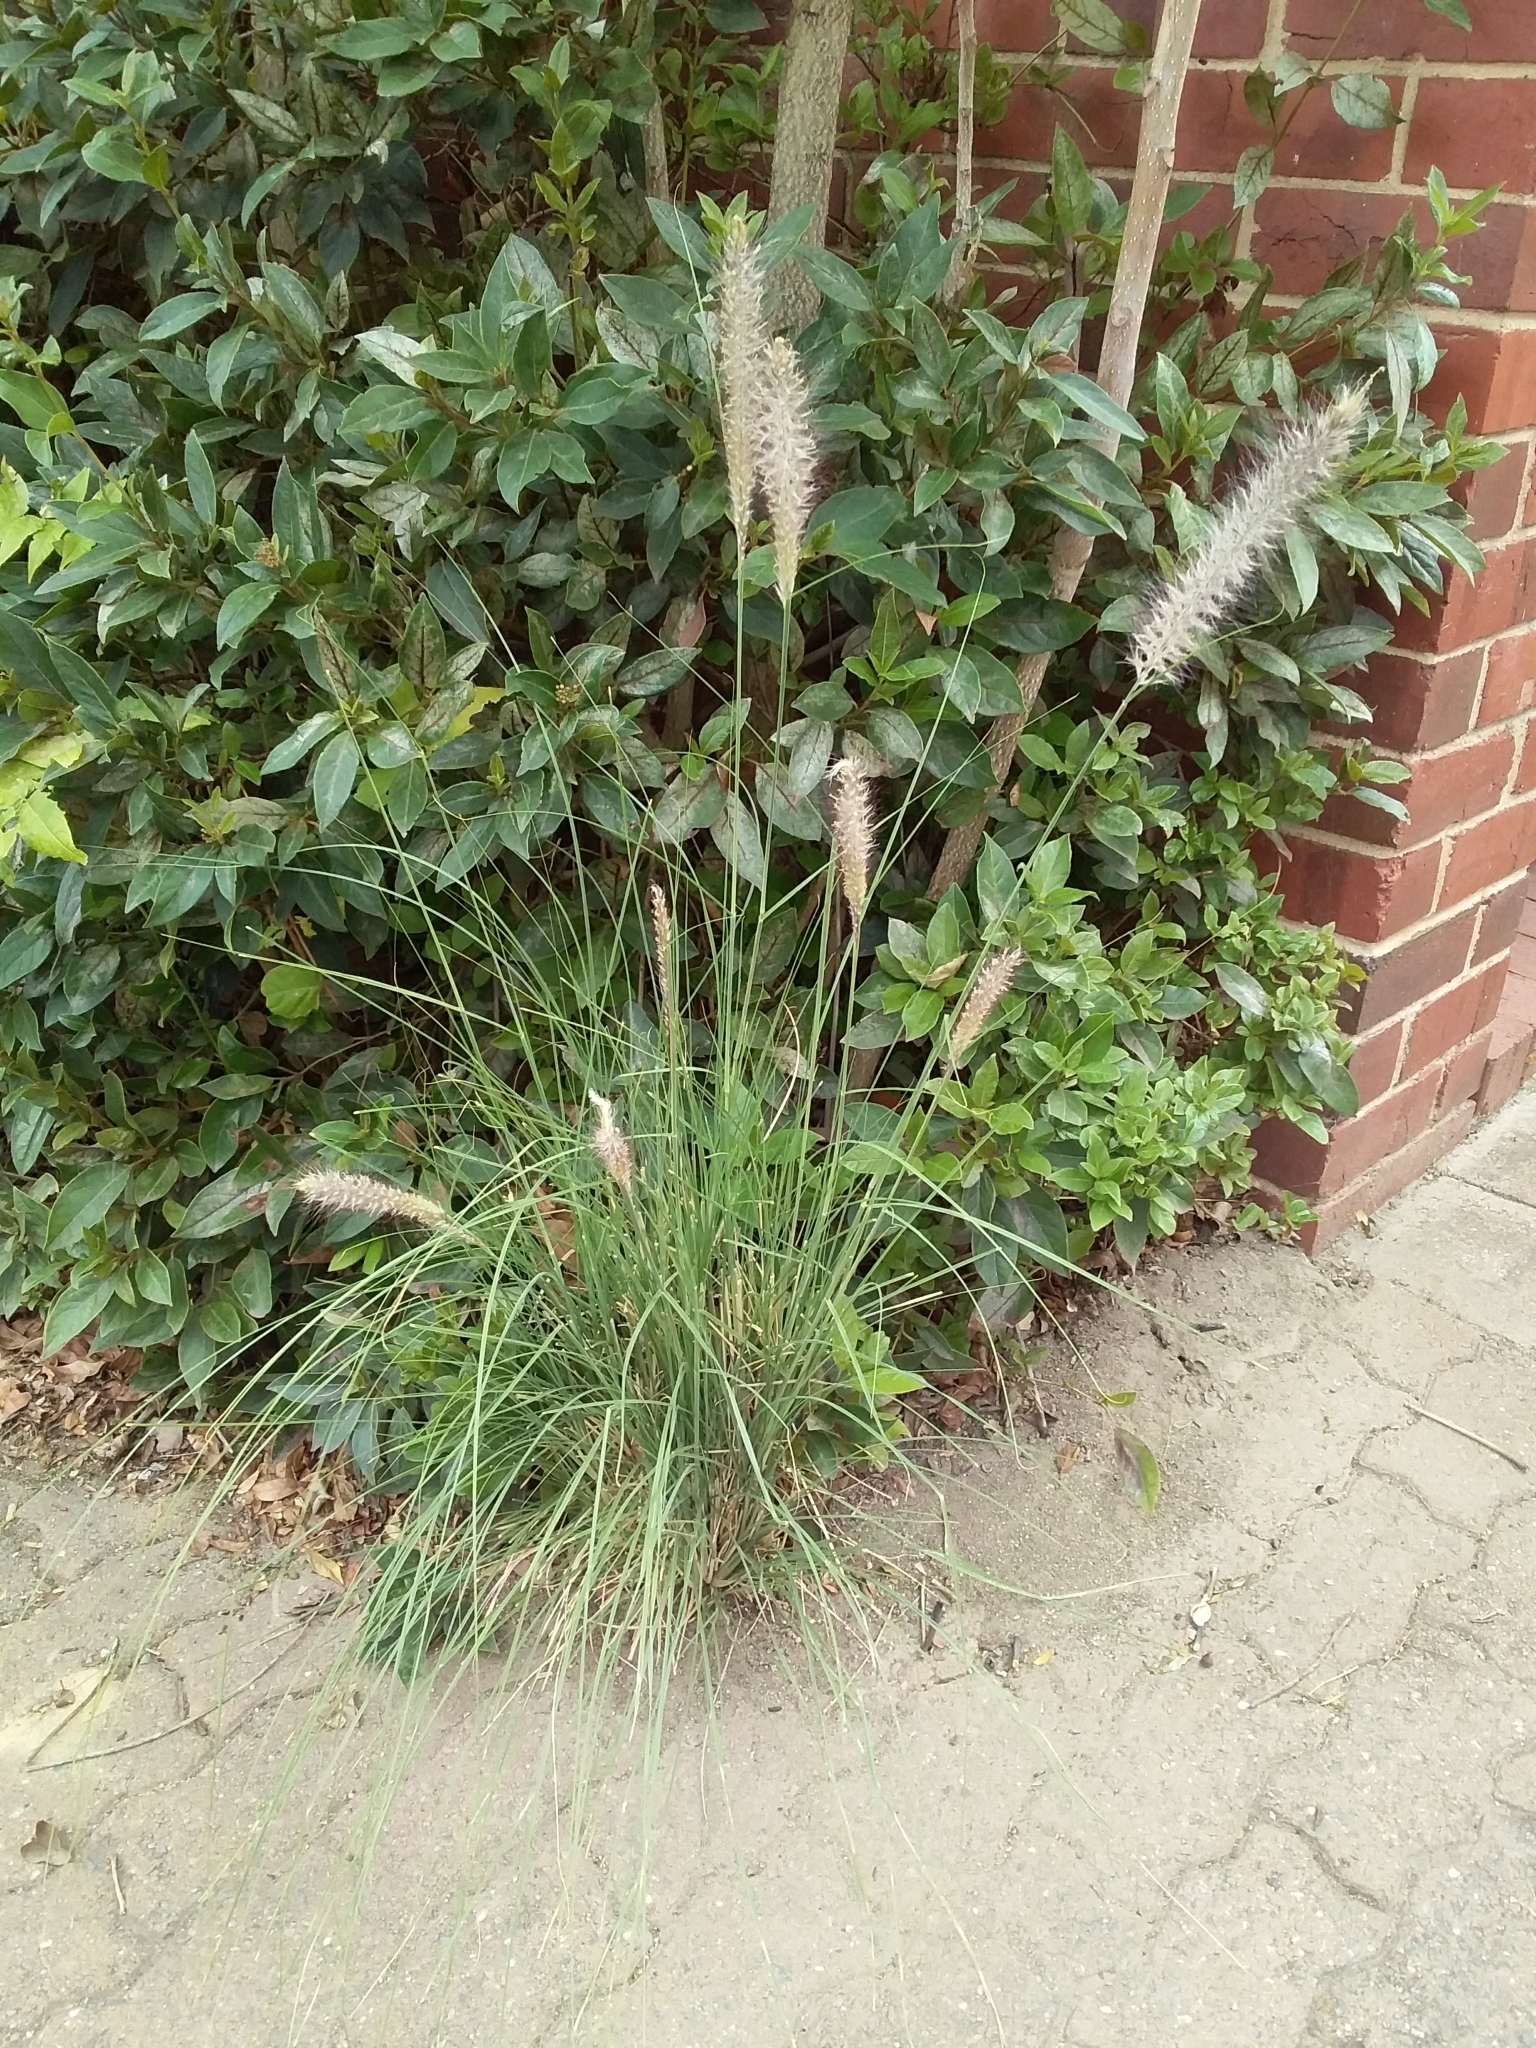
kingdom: Plantae
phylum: Tracheophyta
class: Liliopsida
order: Poales
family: Poaceae
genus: Cenchrus
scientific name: Cenchrus setaceus
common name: Crimson fountaingrass
